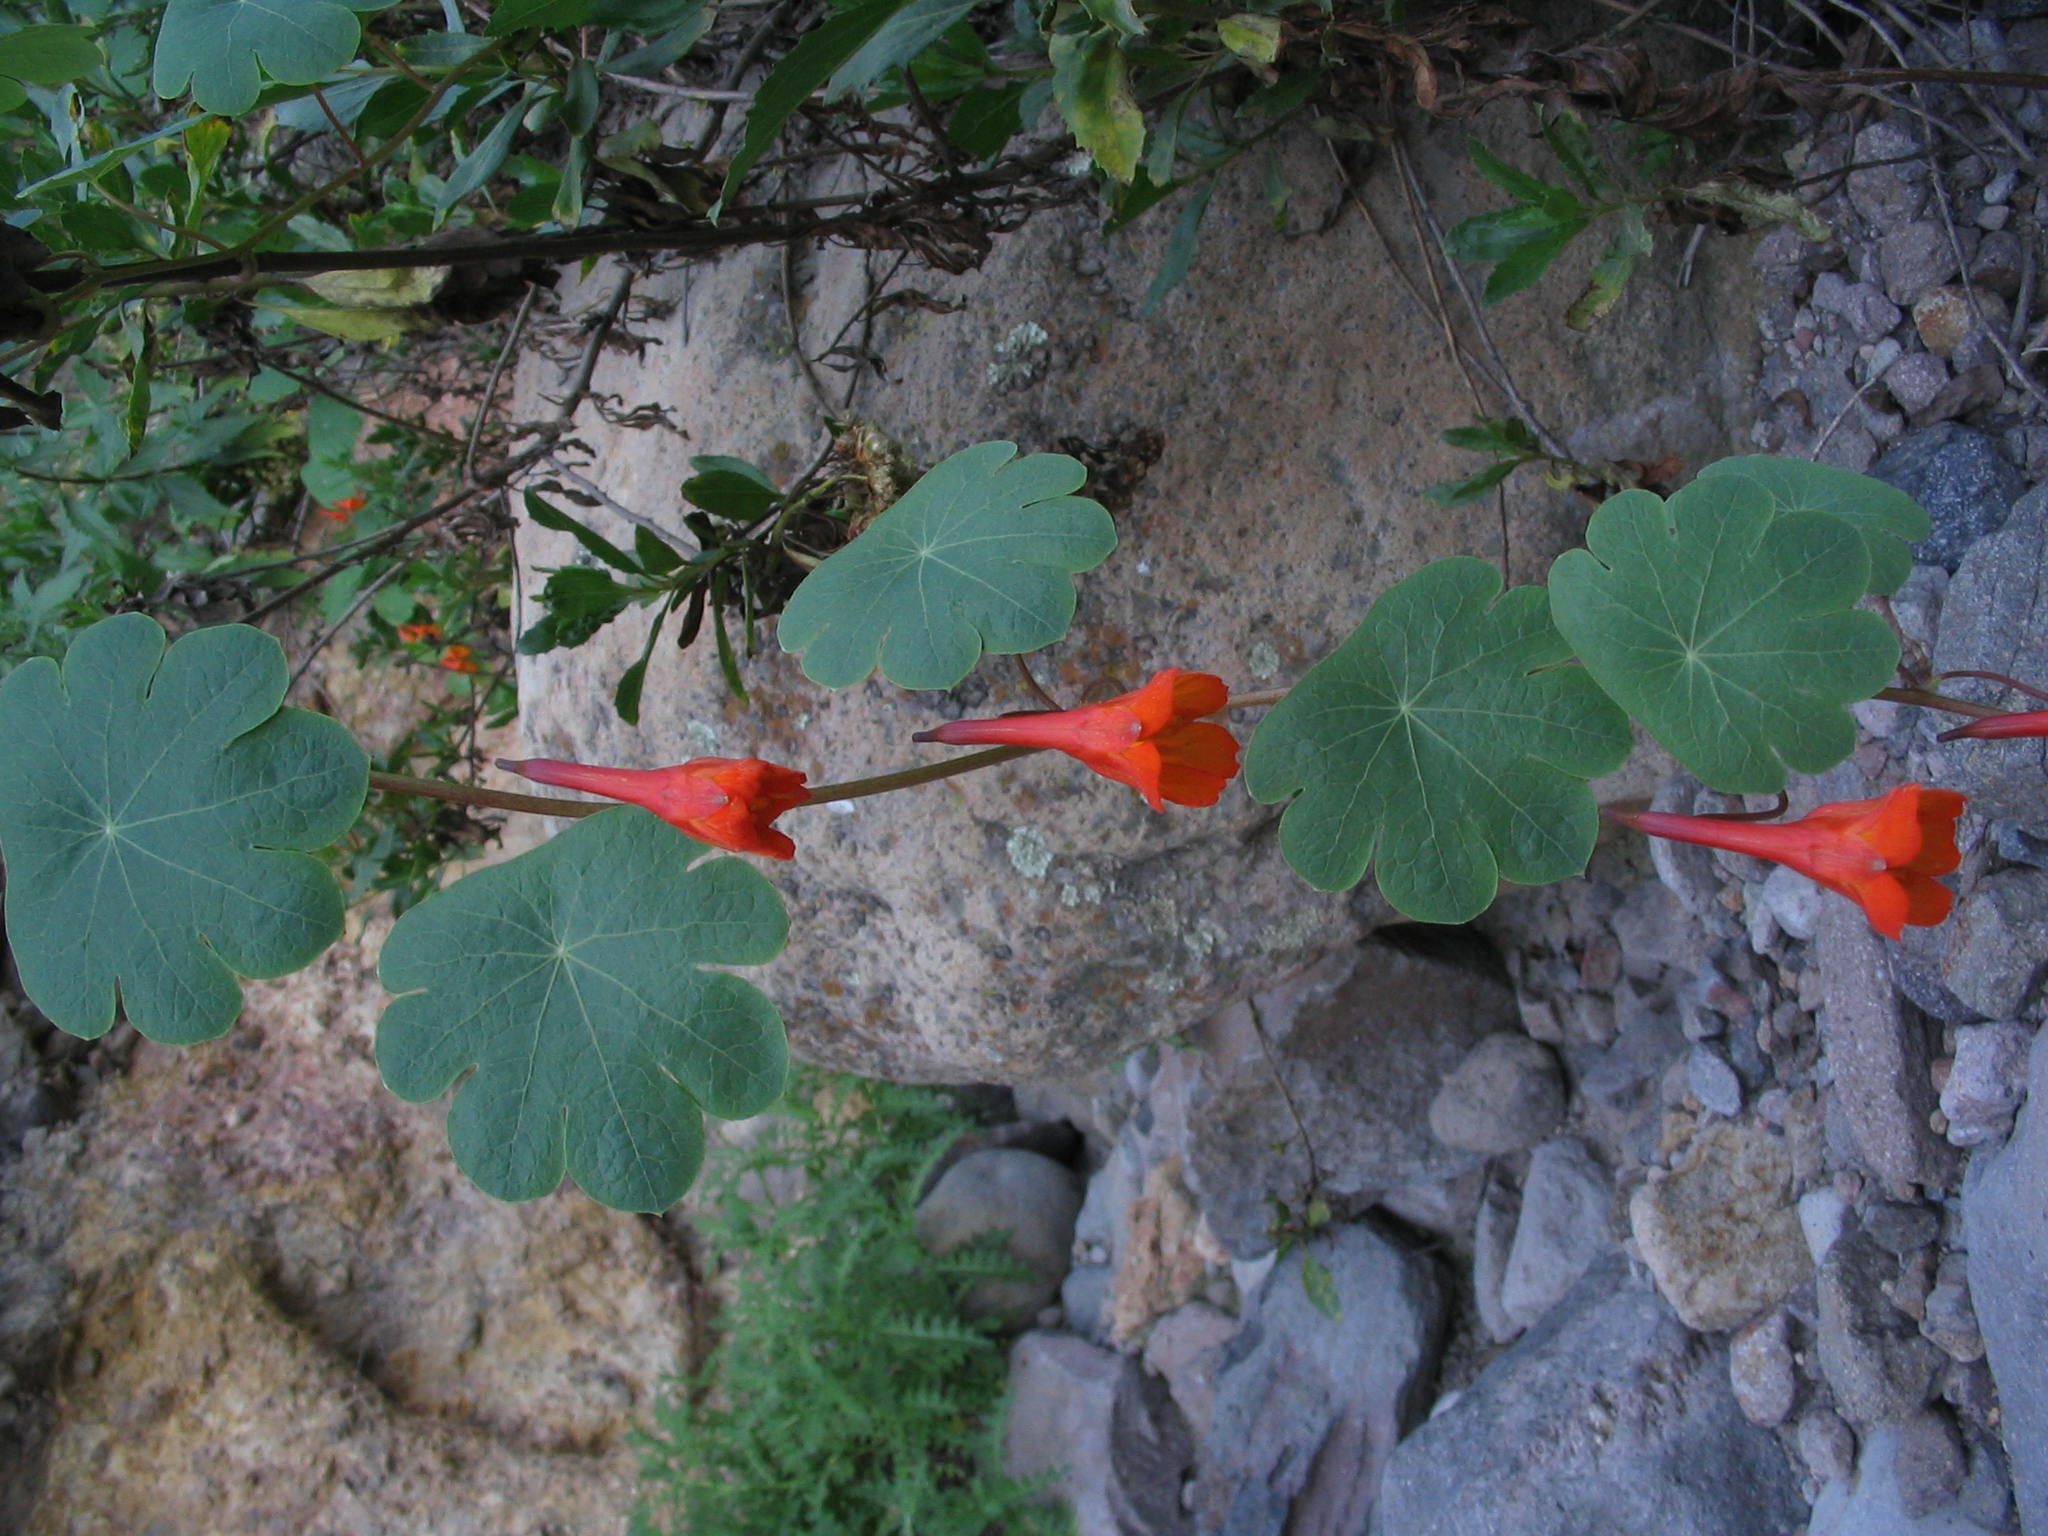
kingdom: Plantae
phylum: Tracheophyta
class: Magnoliopsida
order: Brassicales
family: Tropaeolaceae
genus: Tropaeolum
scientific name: Tropaeolum tuberosum
